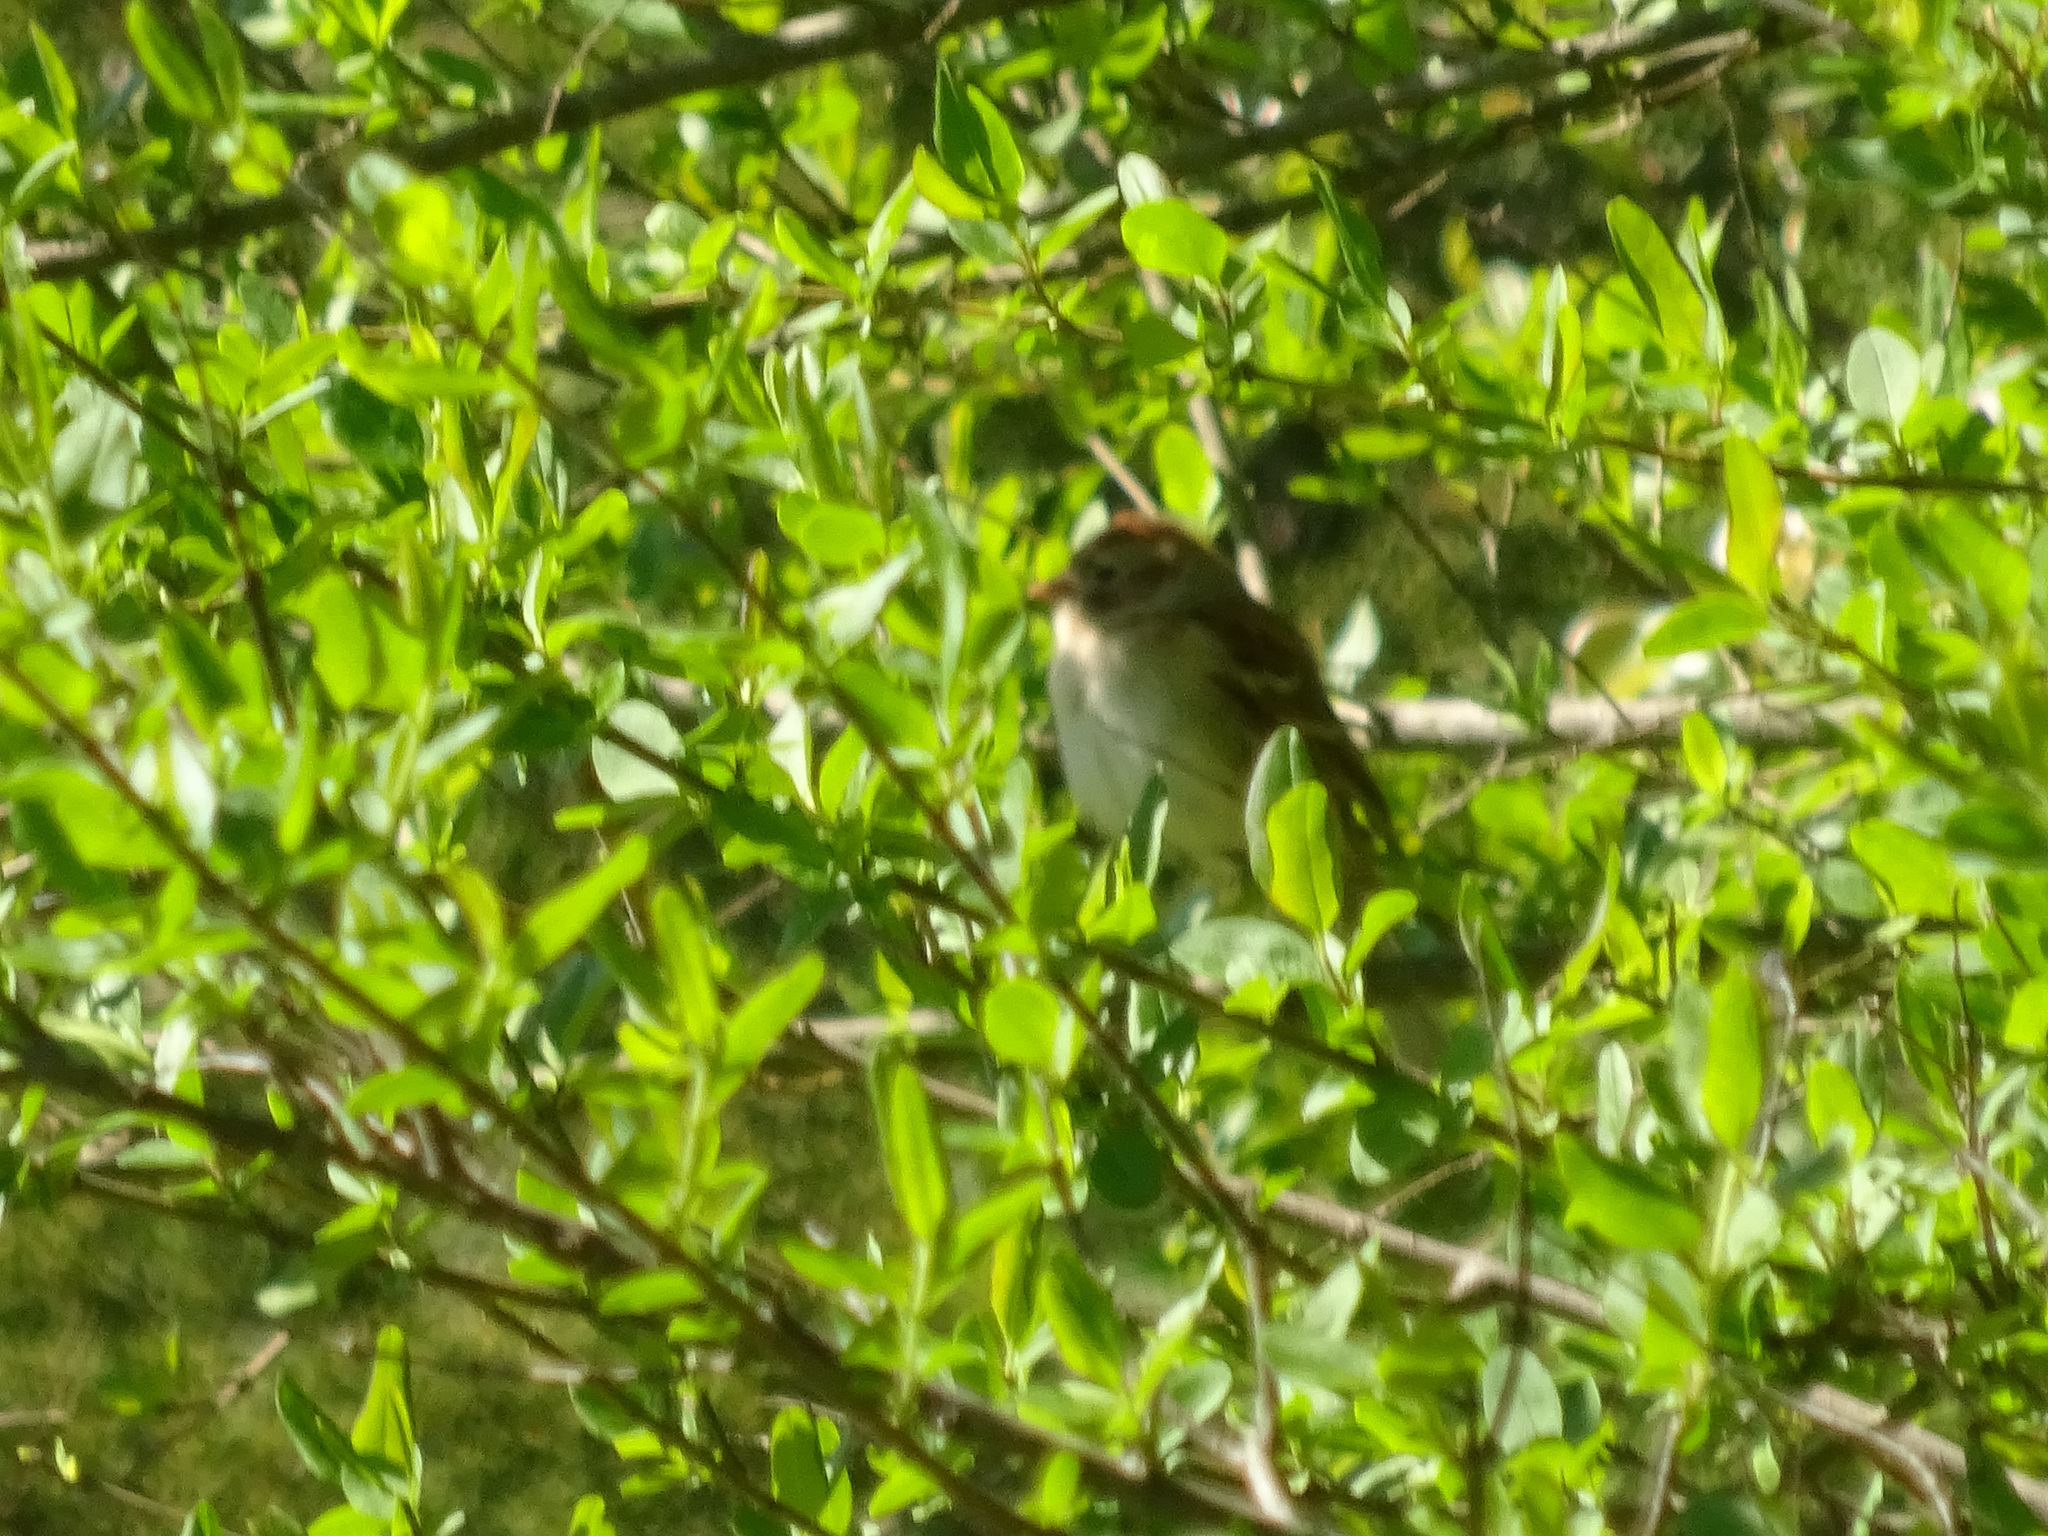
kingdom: Animalia
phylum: Chordata
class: Aves
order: Passeriformes
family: Passerellidae
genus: Spizella
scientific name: Spizella pusilla
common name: Field sparrow
